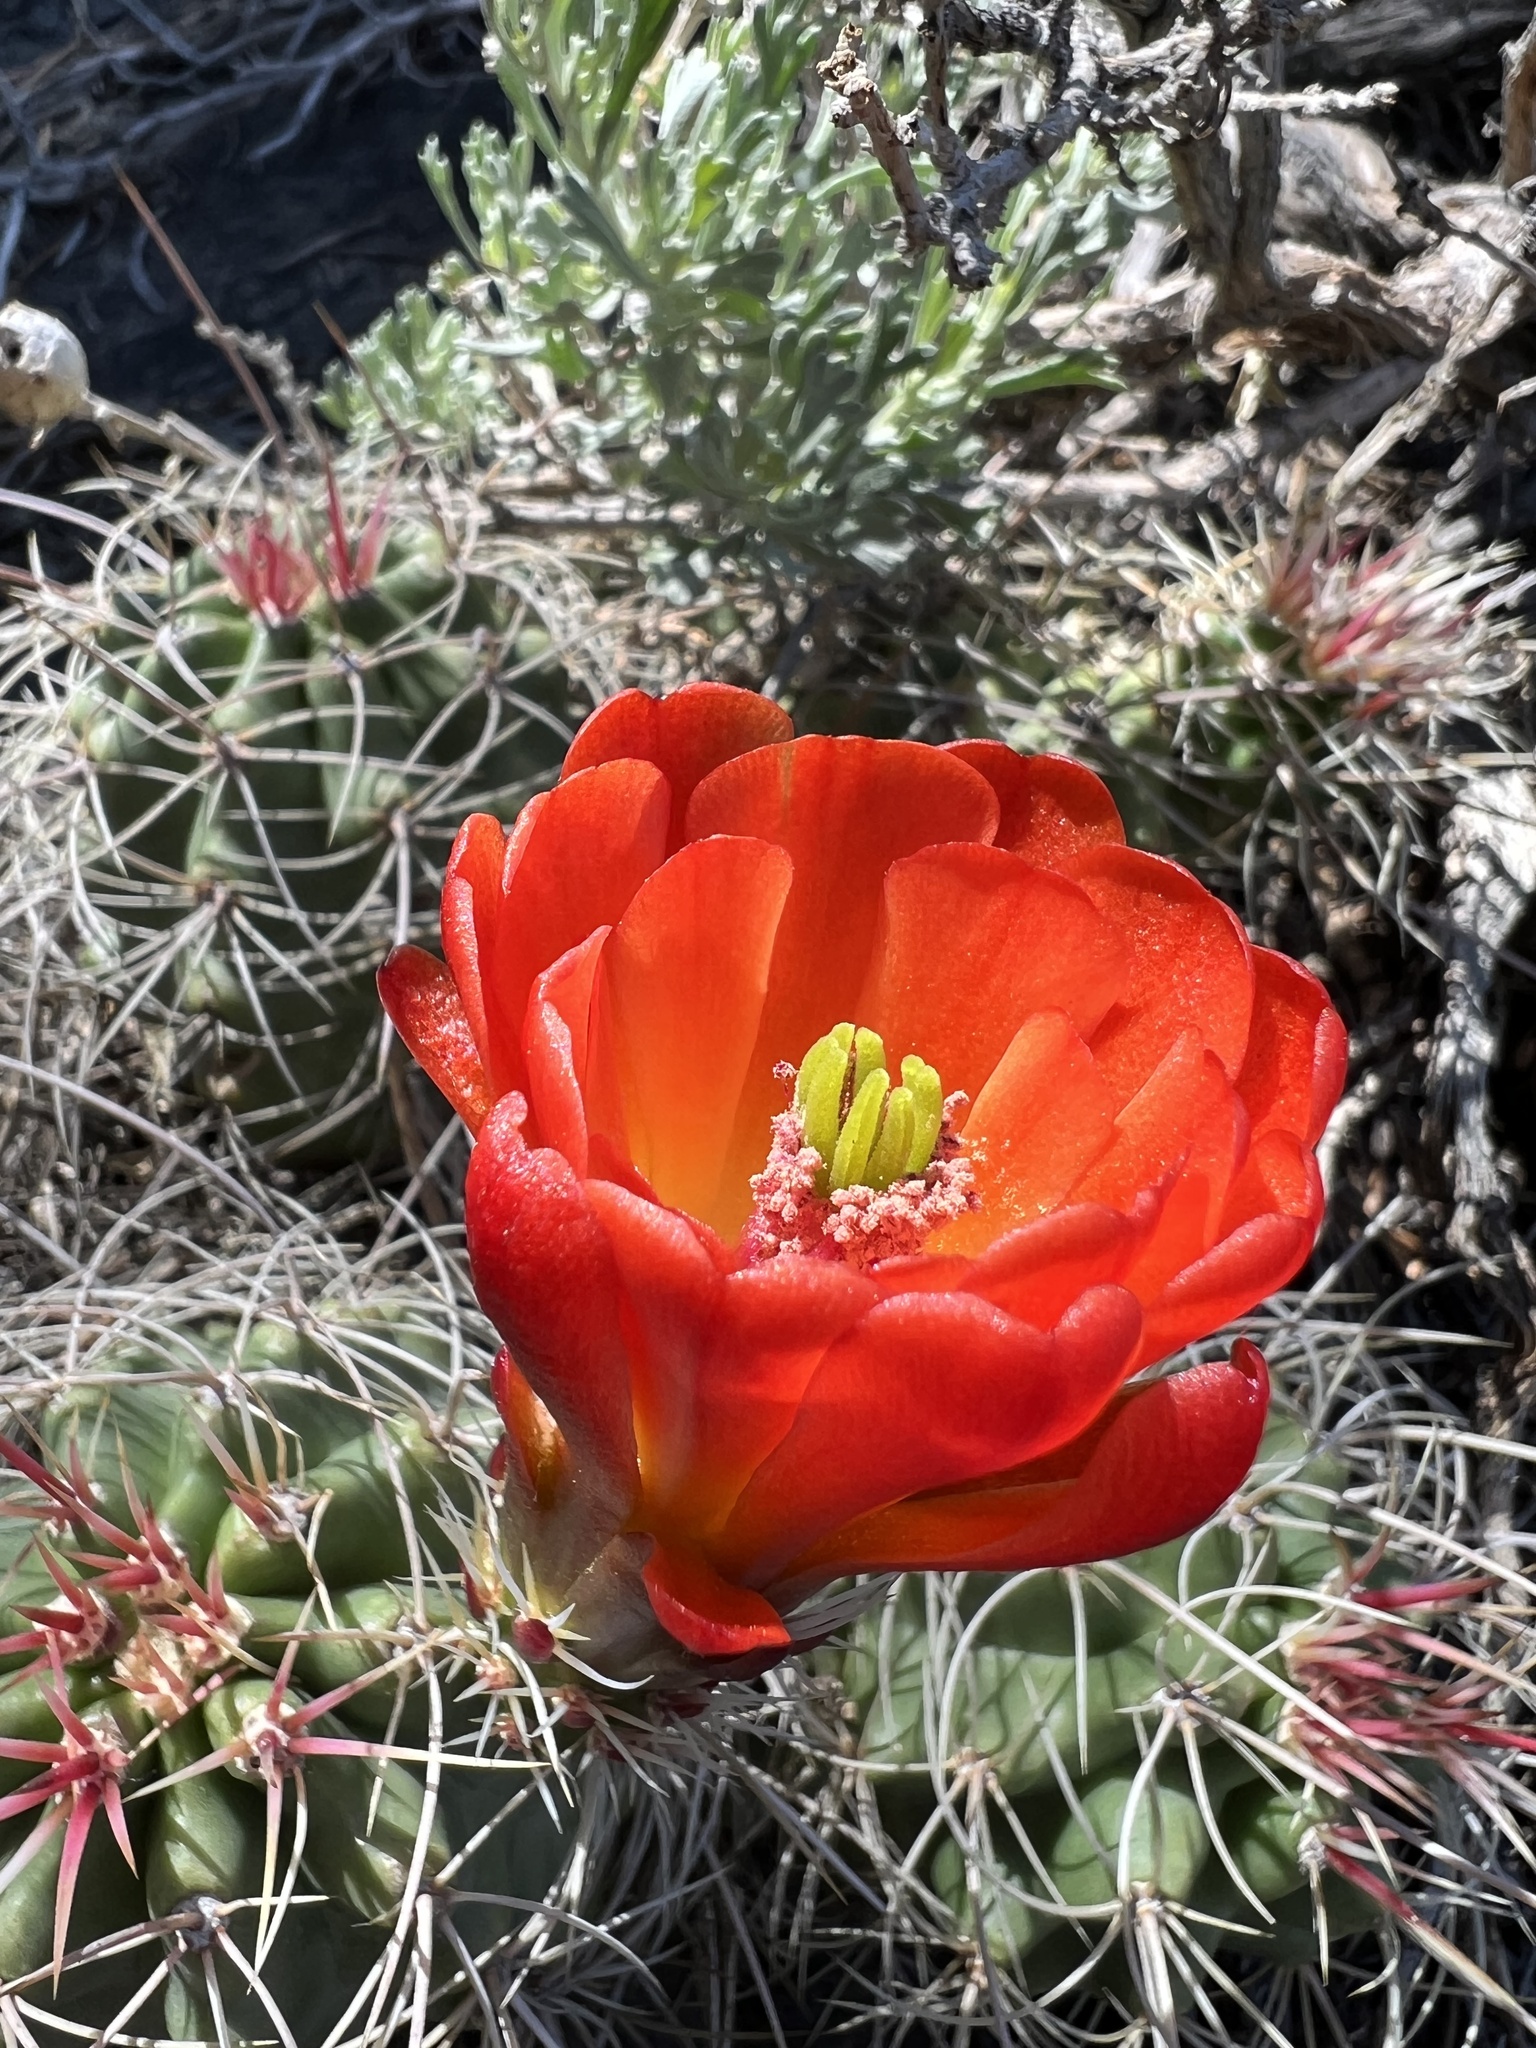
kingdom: Plantae
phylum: Tracheophyta
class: Magnoliopsida
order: Caryophyllales
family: Cactaceae
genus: Echinocereus
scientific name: Echinocereus triglochidiatus
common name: Claretcup hedgehog
